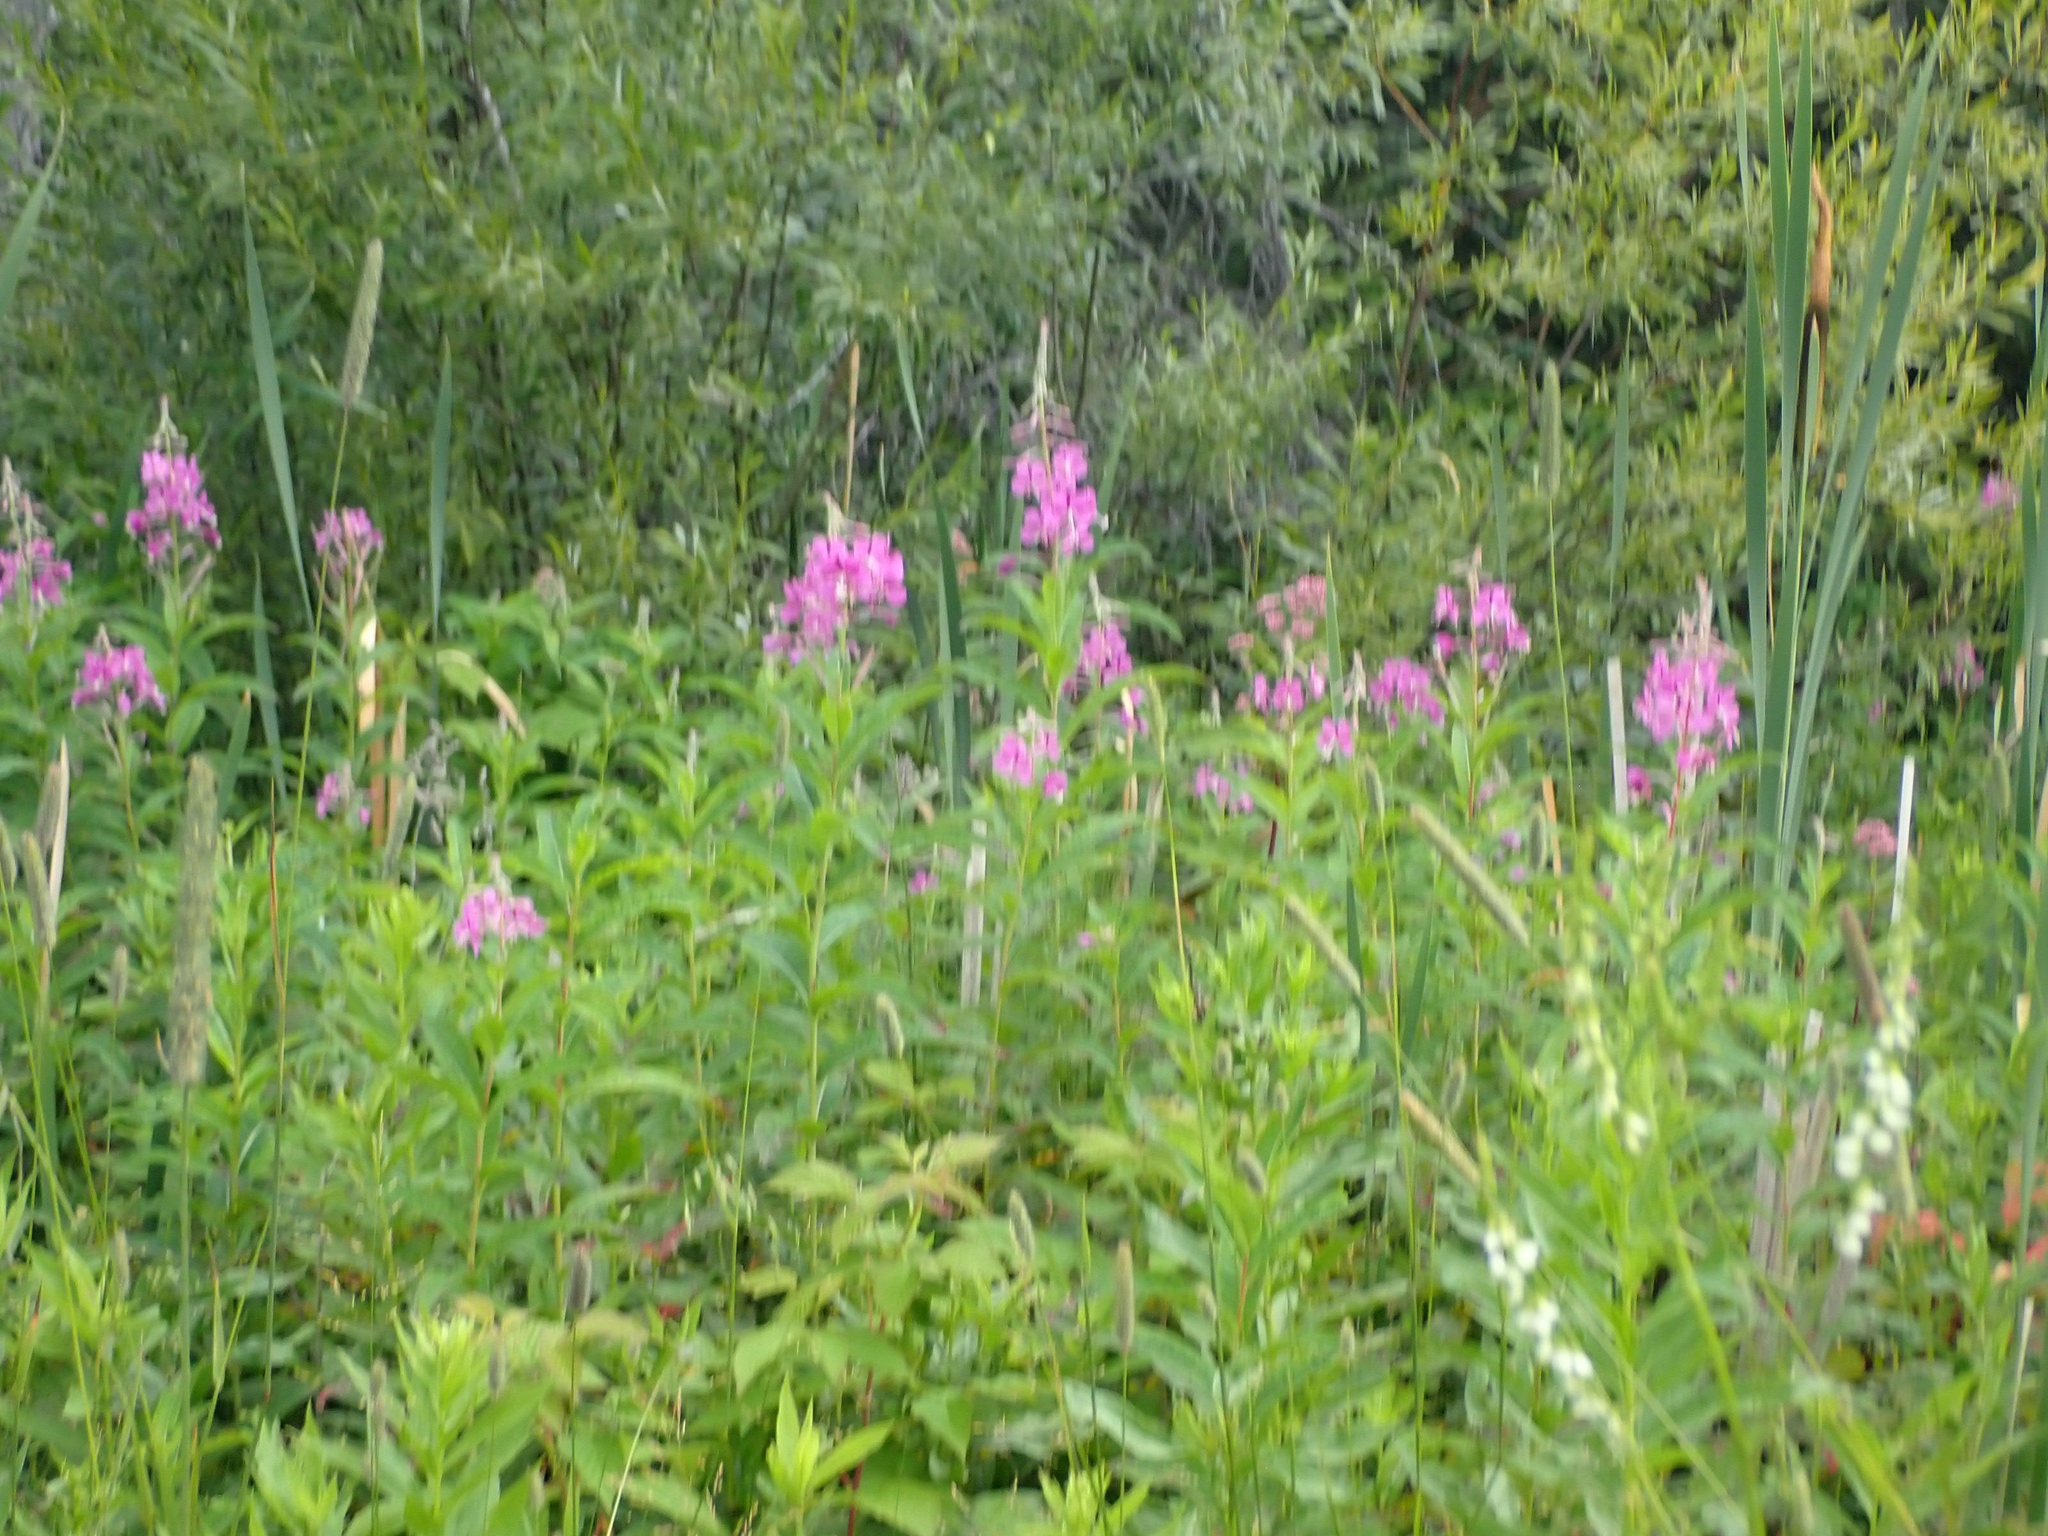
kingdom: Plantae
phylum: Tracheophyta
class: Magnoliopsida
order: Myrtales
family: Onagraceae
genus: Chamaenerion
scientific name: Chamaenerion angustifolium
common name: Fireweed
